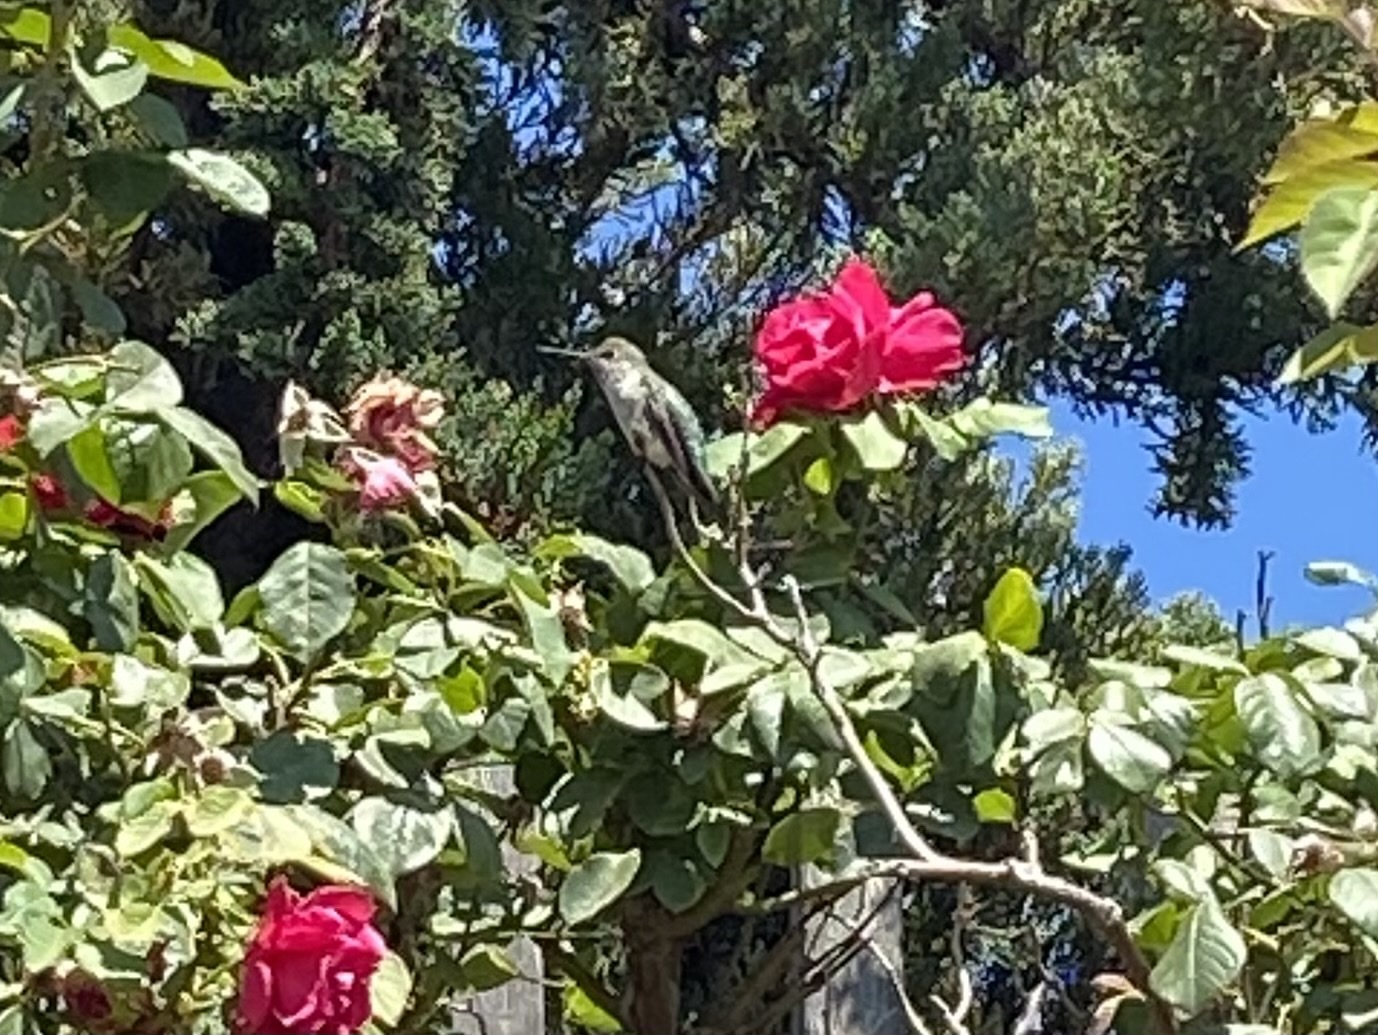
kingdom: Animalia
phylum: Chordata
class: Aves
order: Apodiformes
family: Trochilidae
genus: Calypte
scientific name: Calypte anna
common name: Anna's hummingbird
